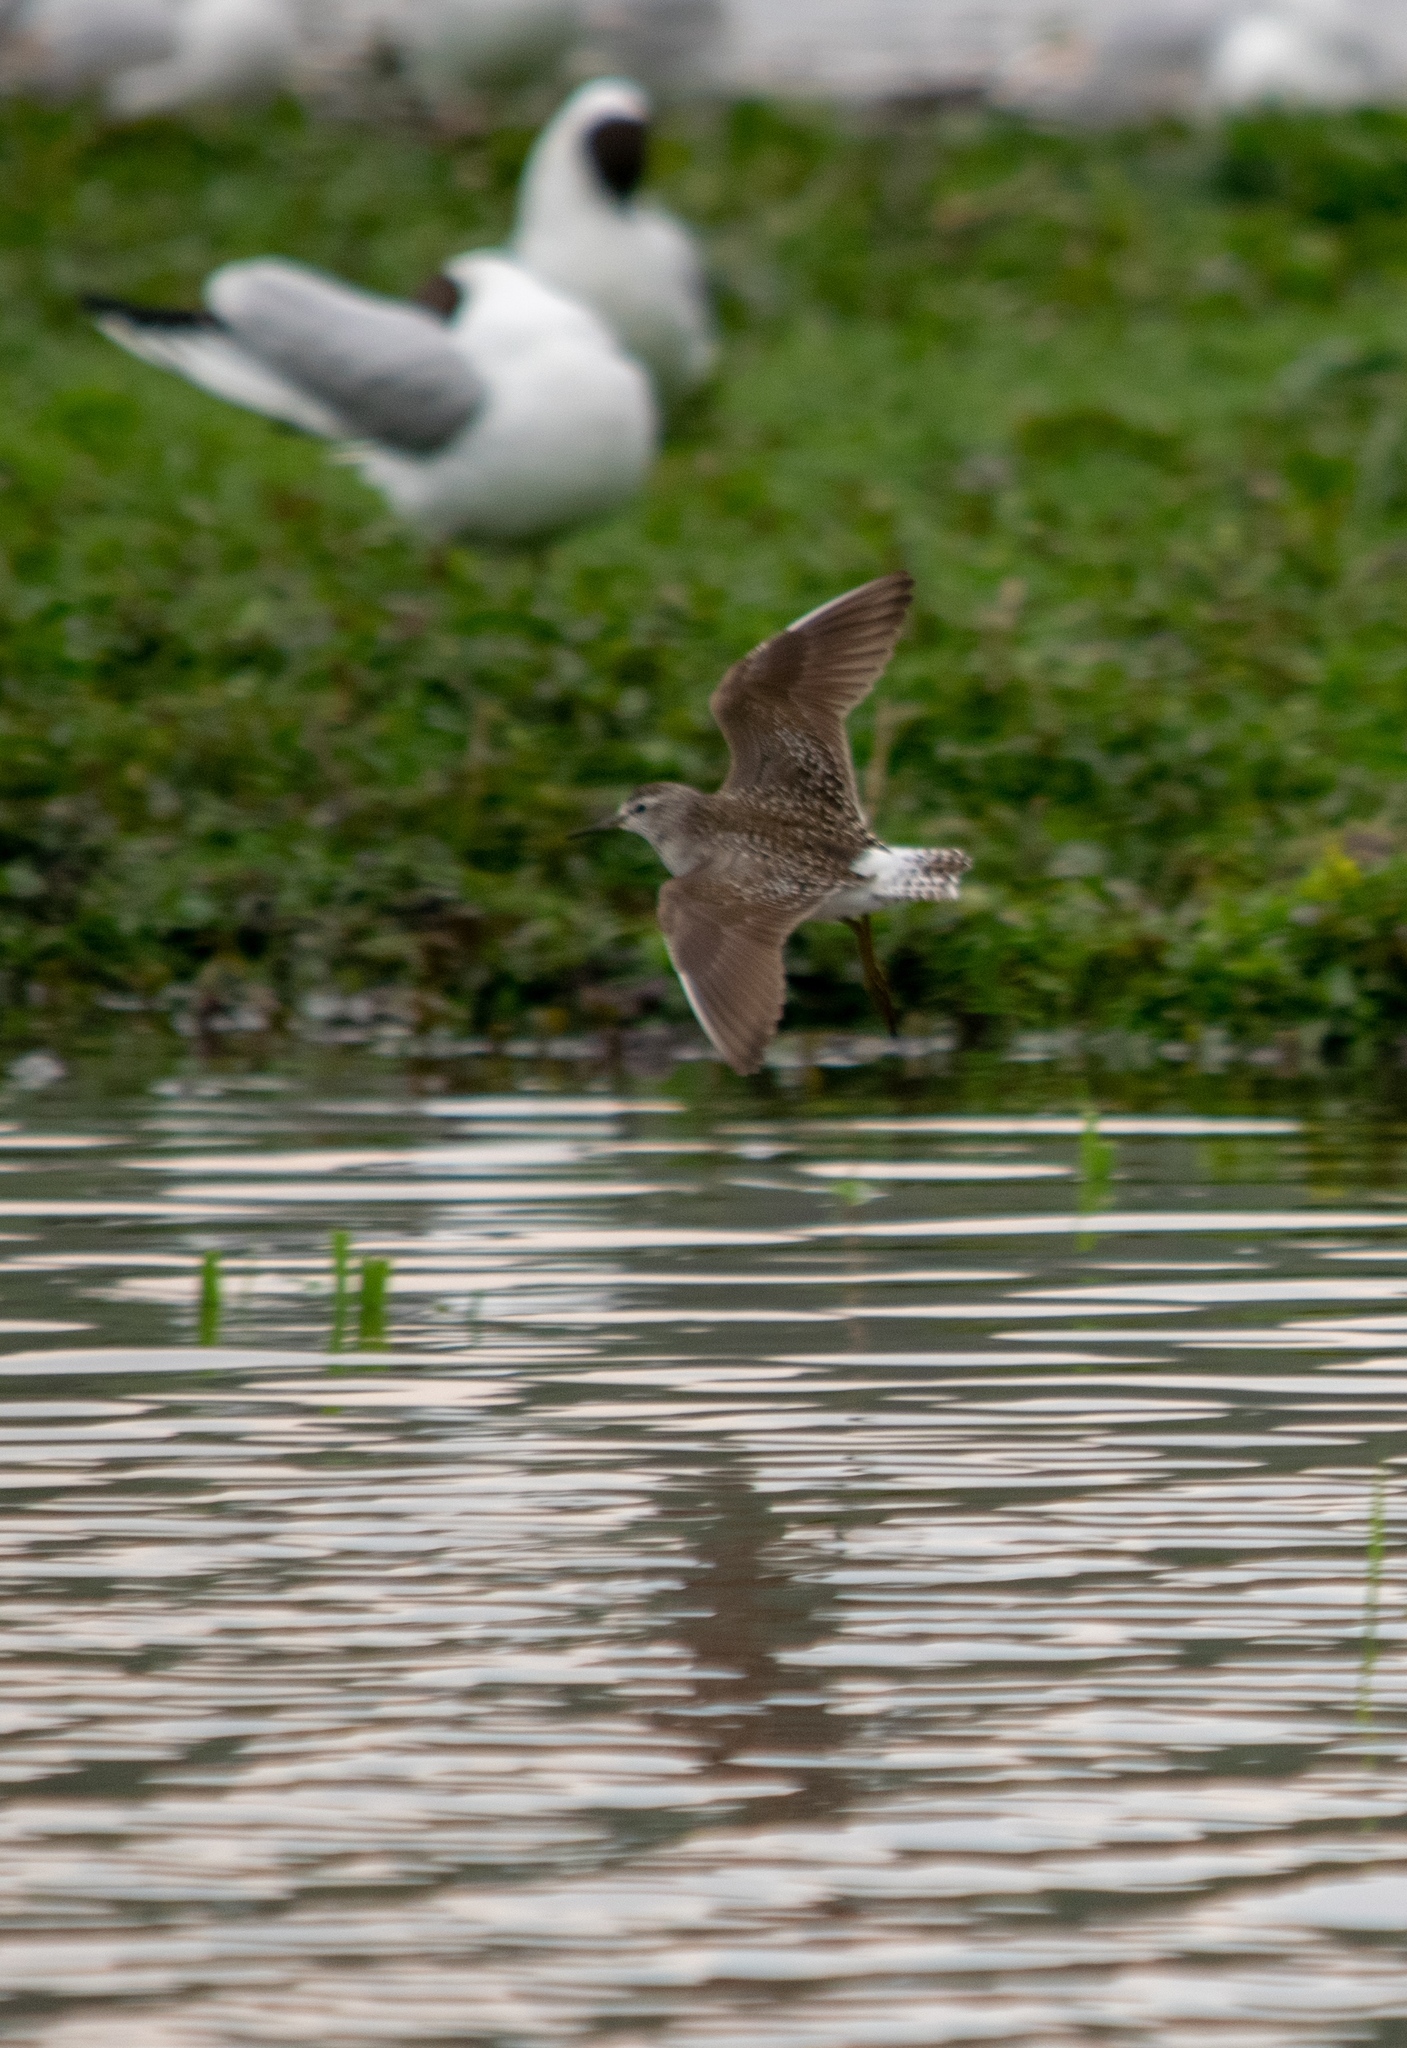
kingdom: Animalia
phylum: Chordata
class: Aves
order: Charadriiformes
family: Scolopacidae
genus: Tringa
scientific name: Tringa glareola
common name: Wood sandpiper
